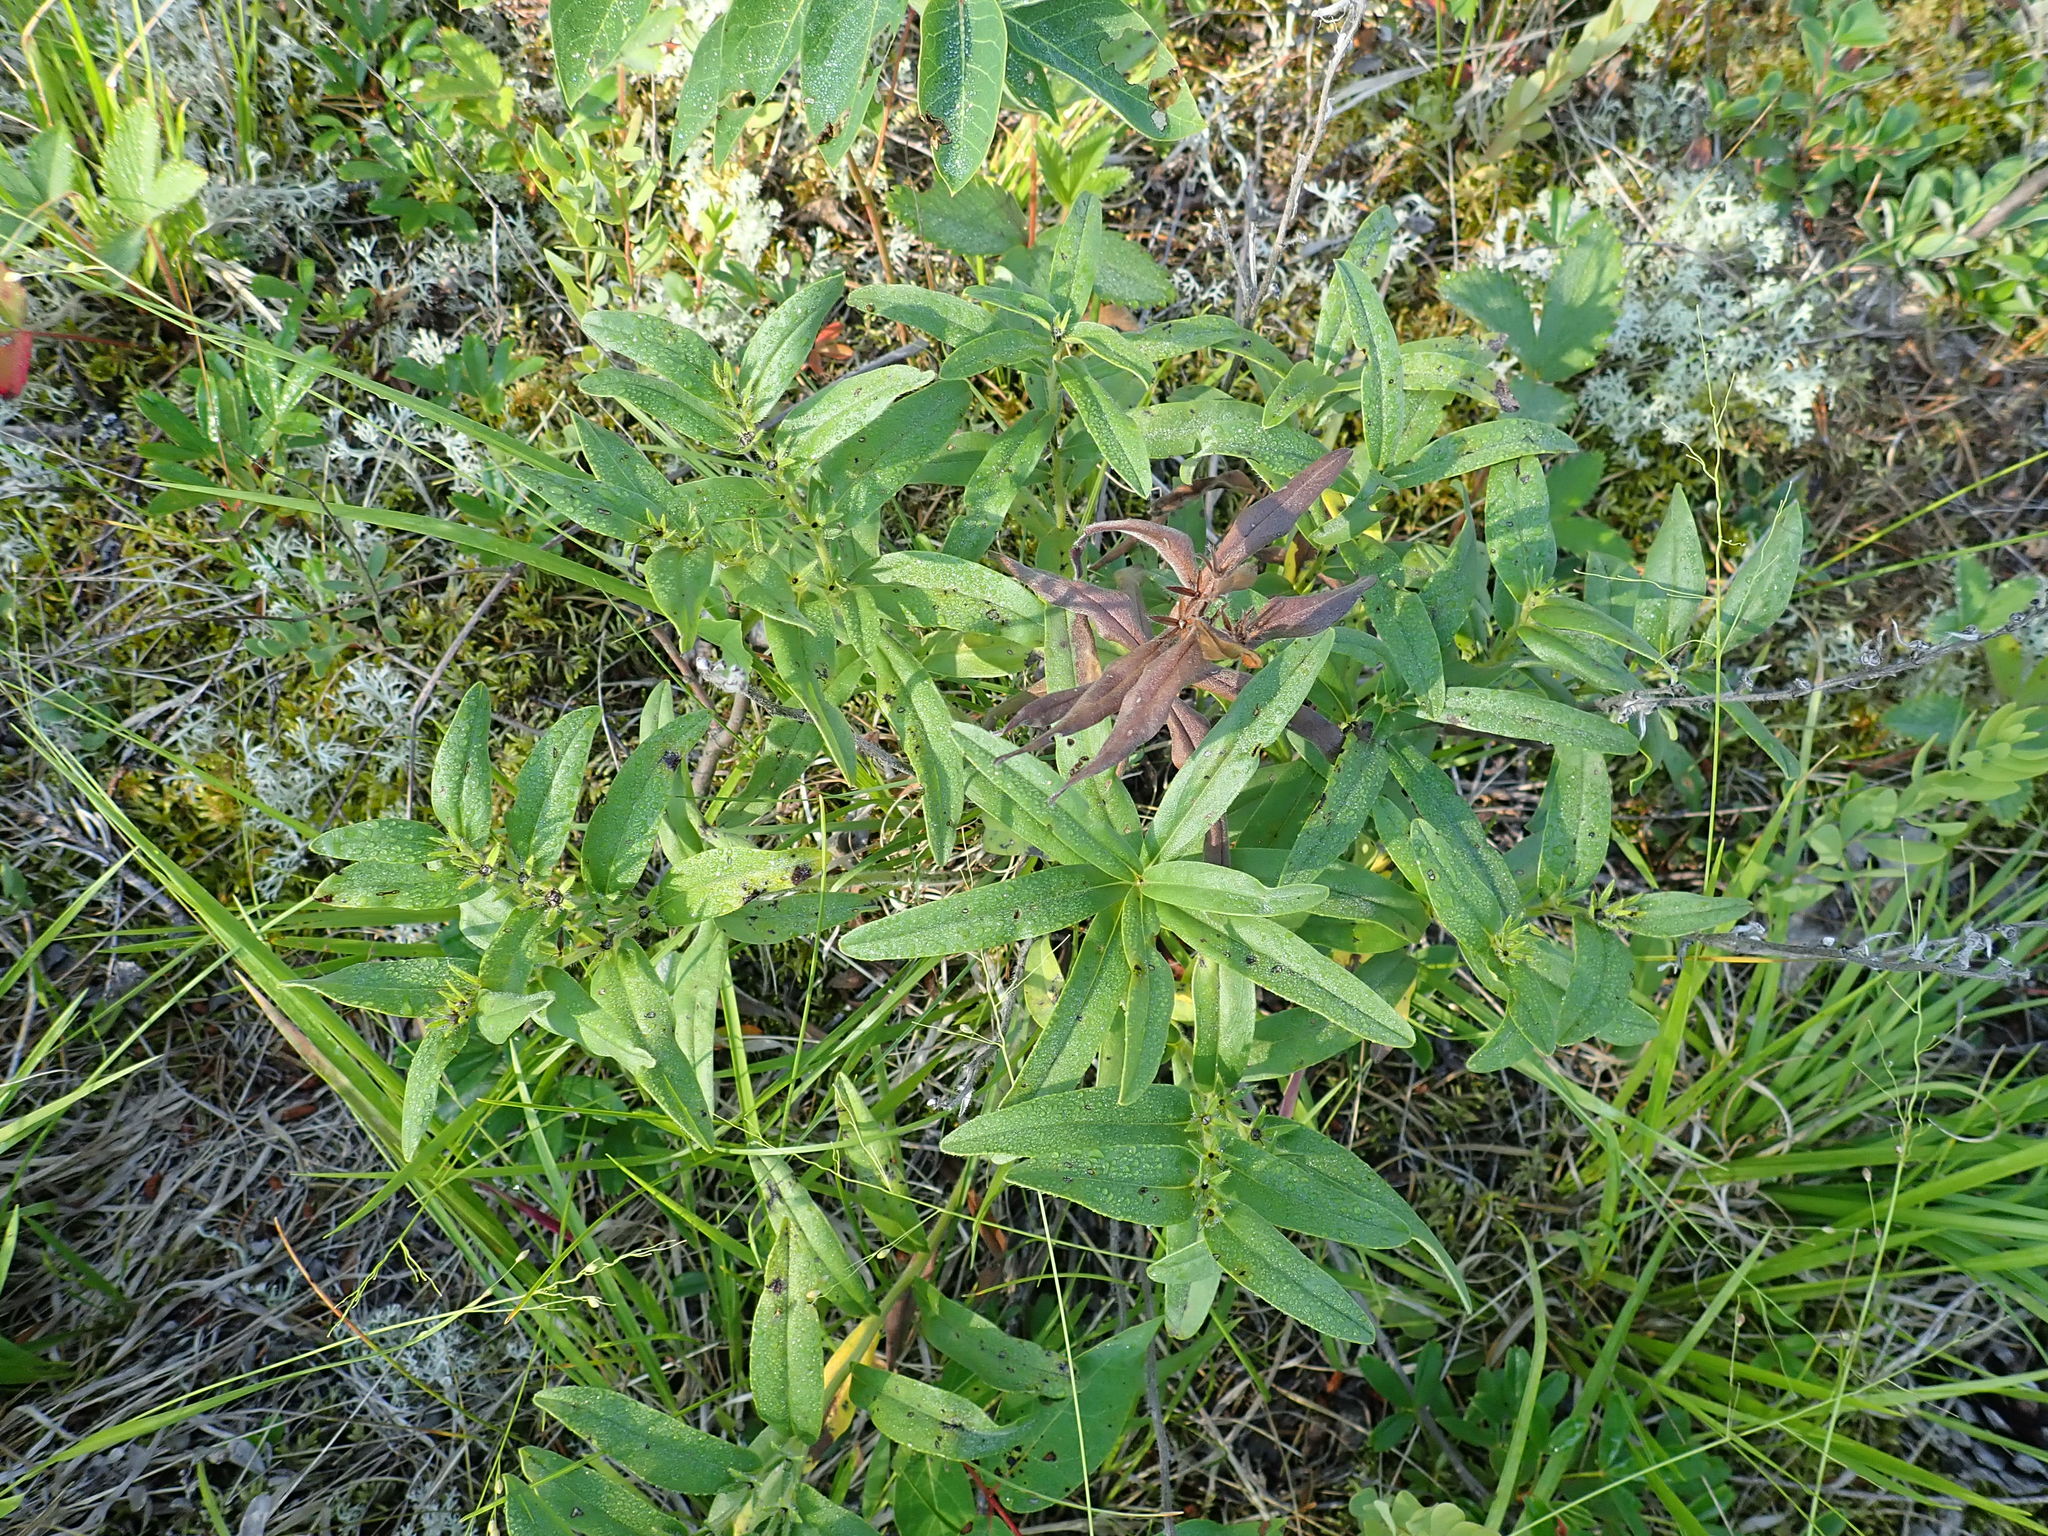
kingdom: Plantae
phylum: Tracheophyta
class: Magnoliopsida
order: Boraginales
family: Boraginaceae
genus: Lithospermum
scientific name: Lithospermum canescens
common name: Hoary puccoon
